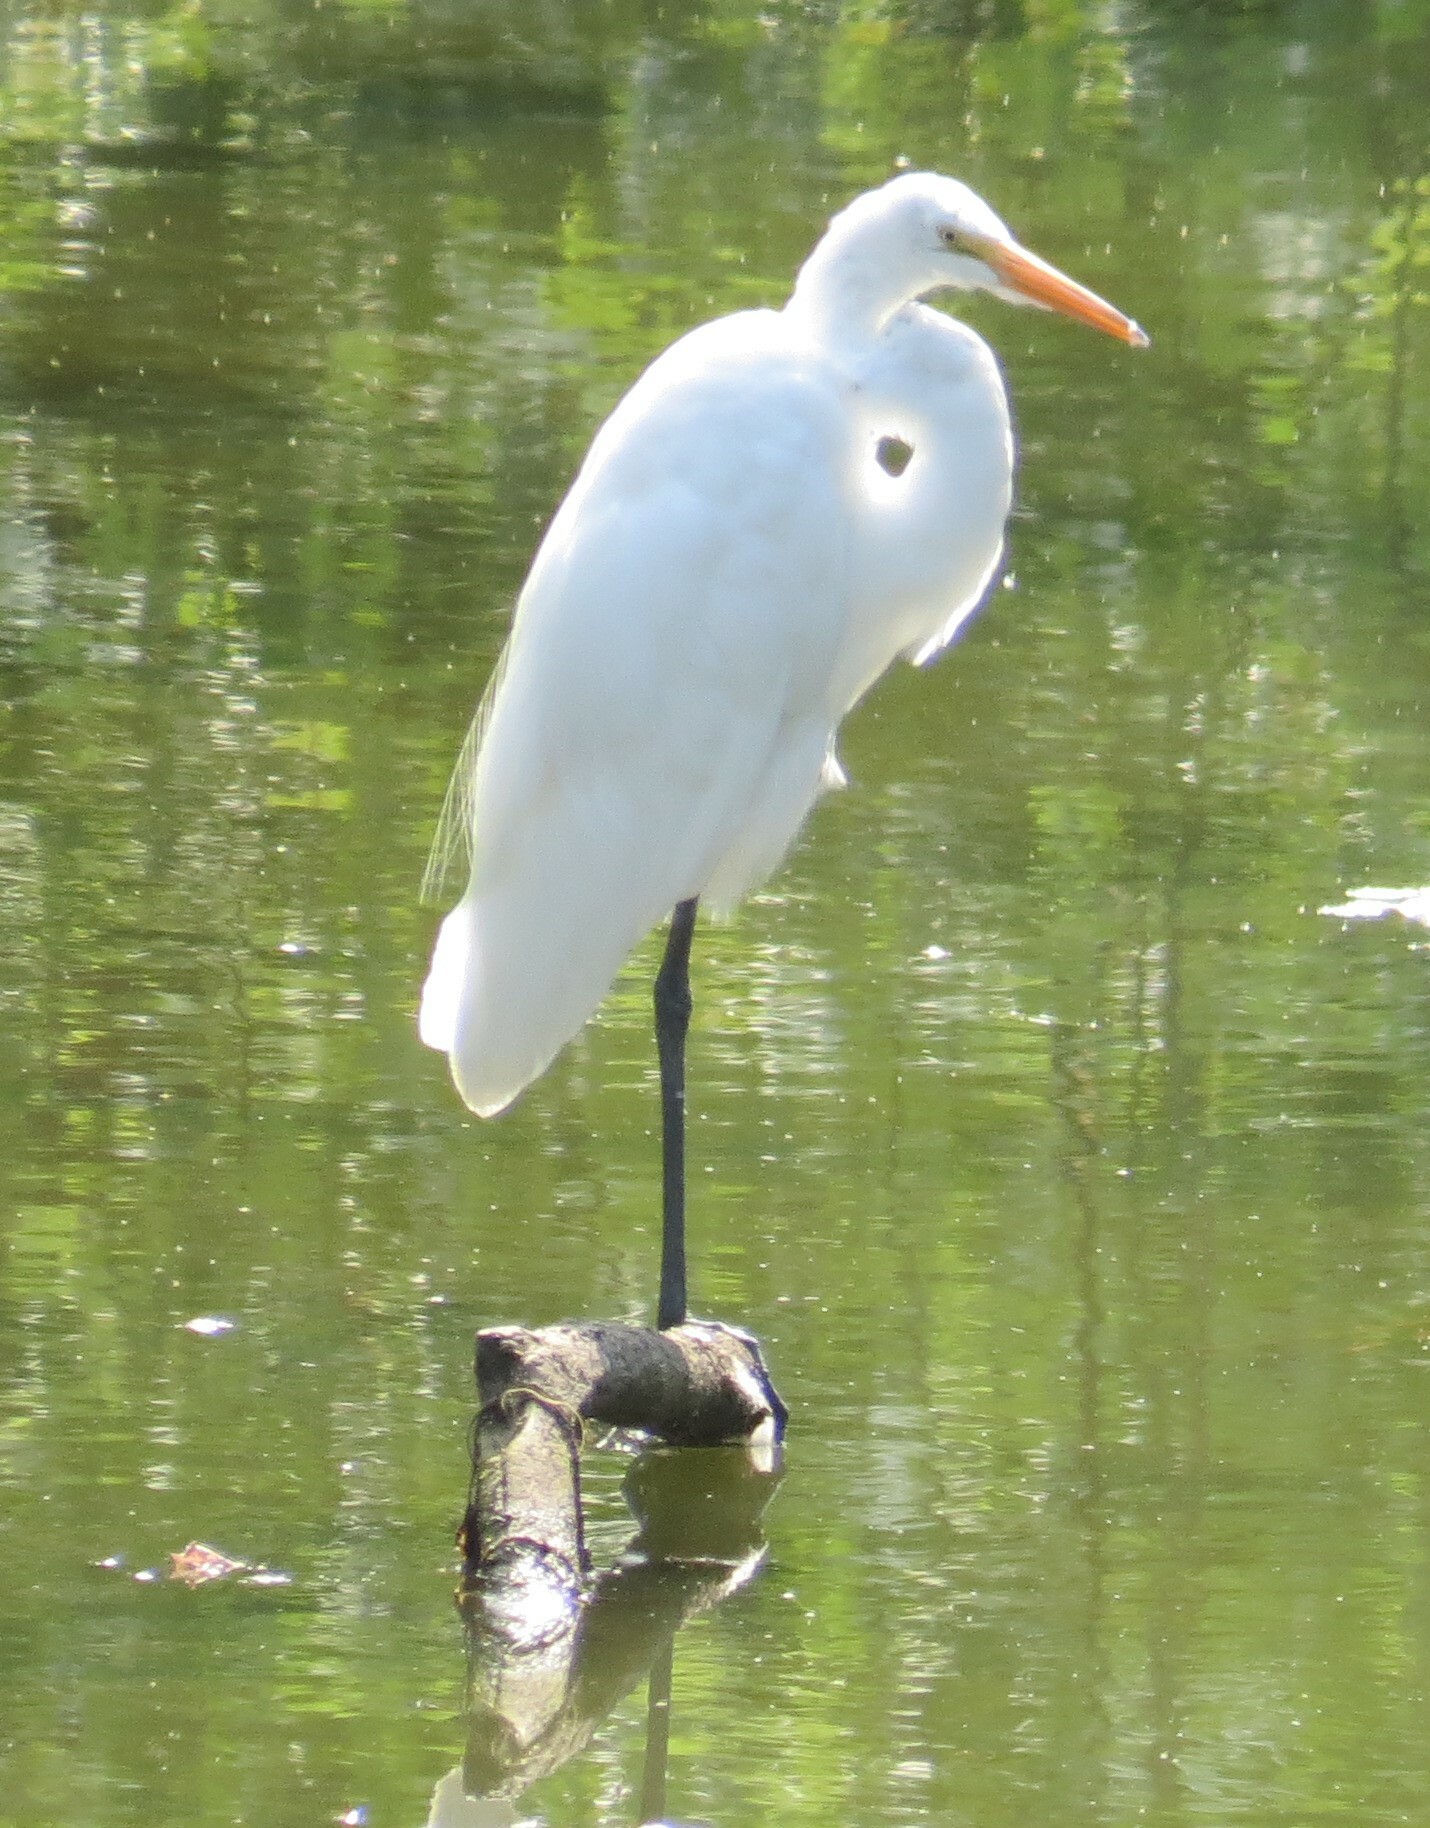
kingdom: Animalia
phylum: Chordata
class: Aves
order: Pelecaniformes
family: Ardeidae
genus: Ardea
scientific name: Ardea alba
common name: Great egret
